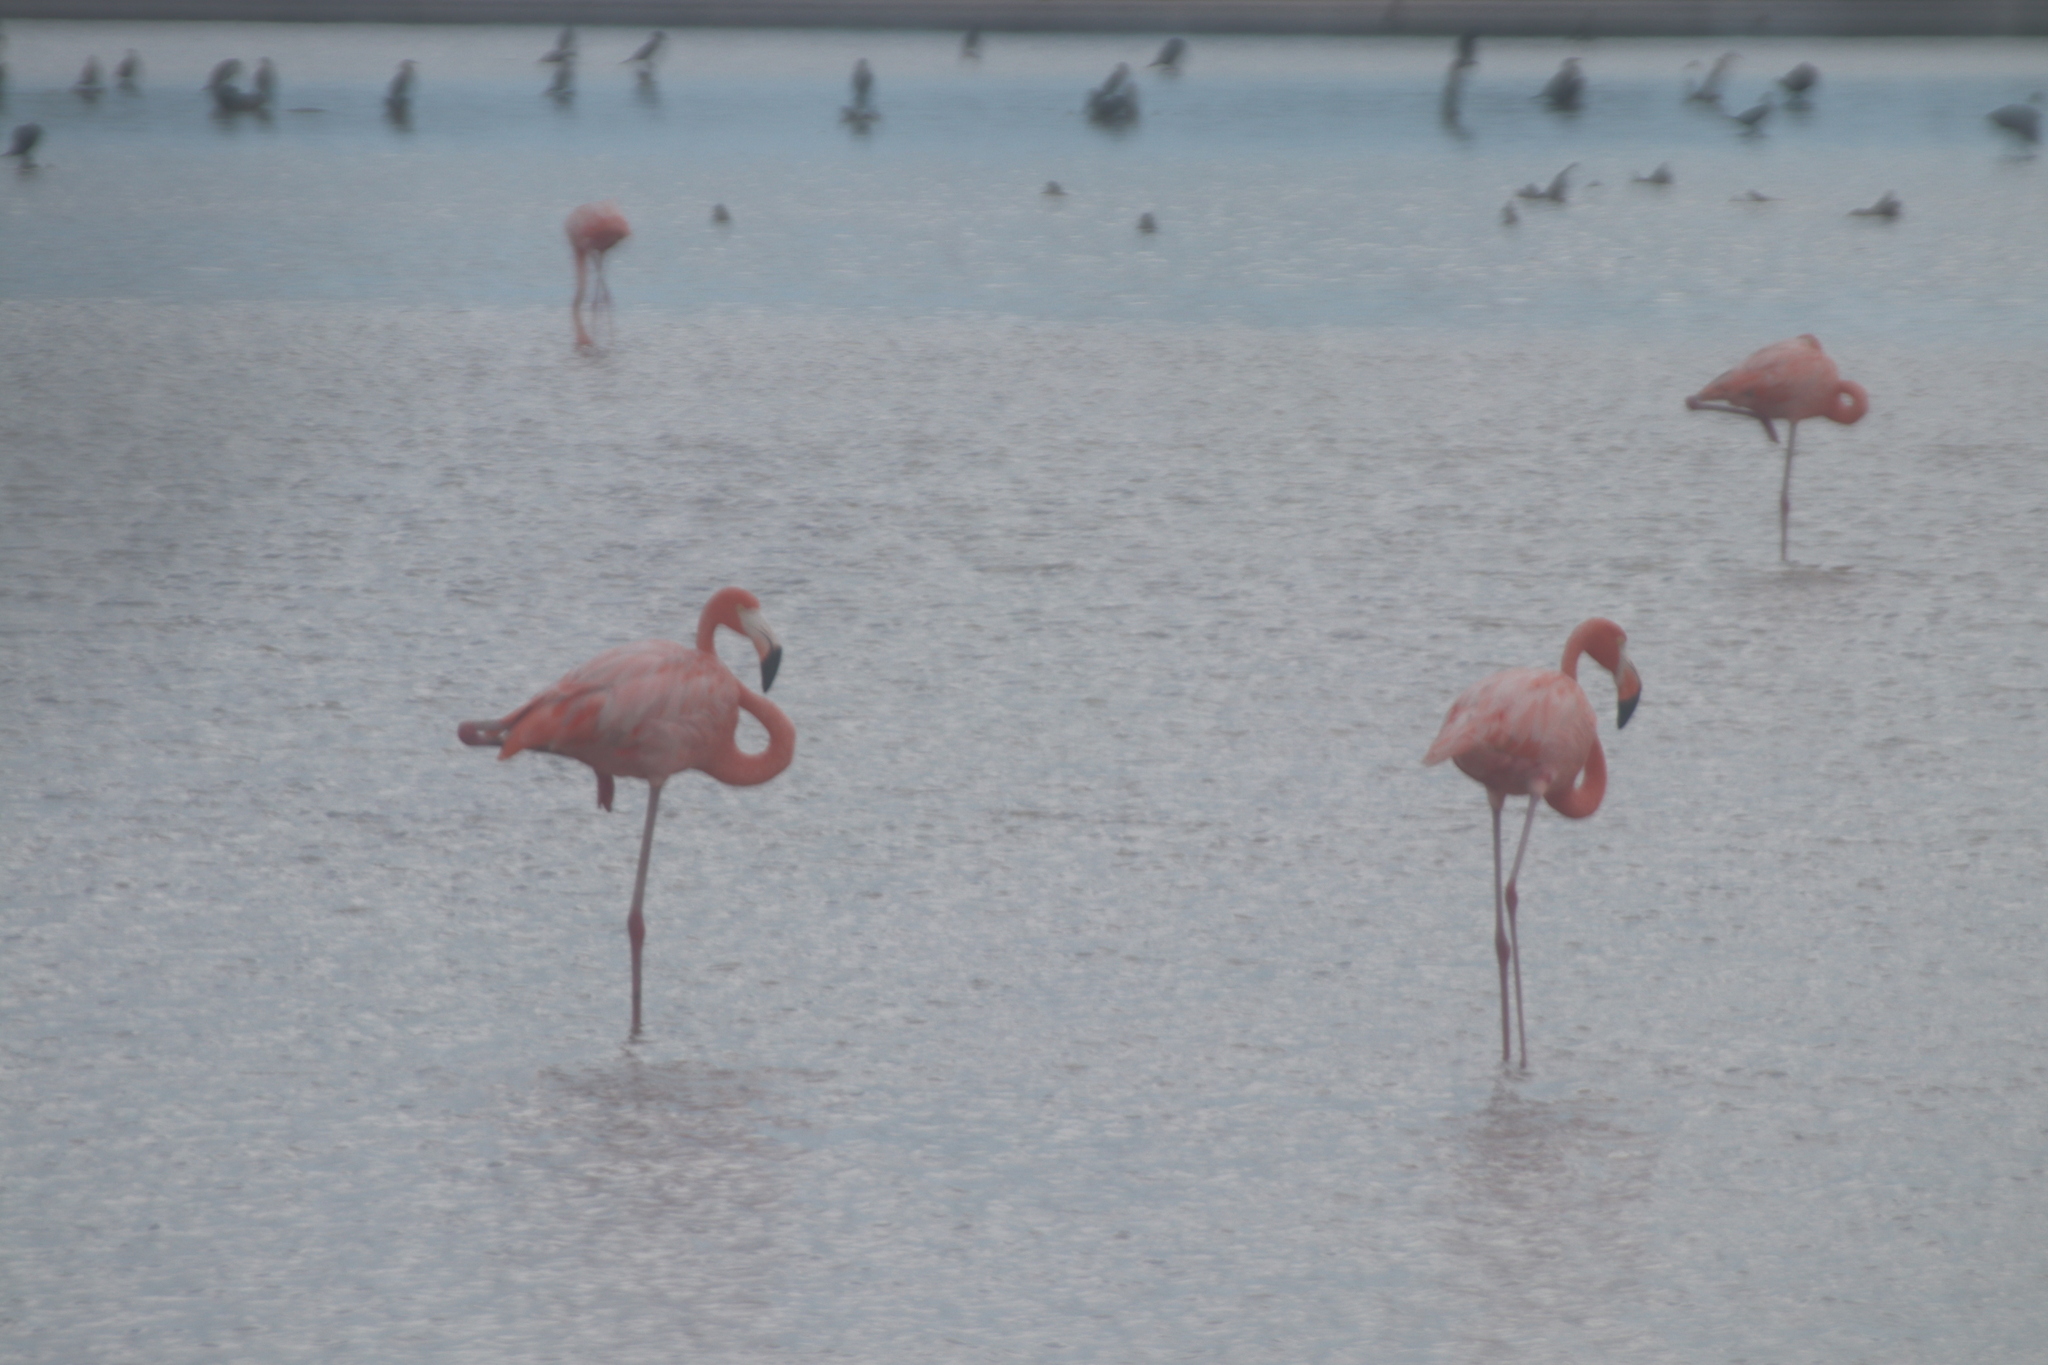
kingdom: Animalia
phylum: Chordata
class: Aves
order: Phoenicopteriformes
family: Phoenicopteridae
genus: Phoenicopterus
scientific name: Phoenicopterus ruber
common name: American flamingo
